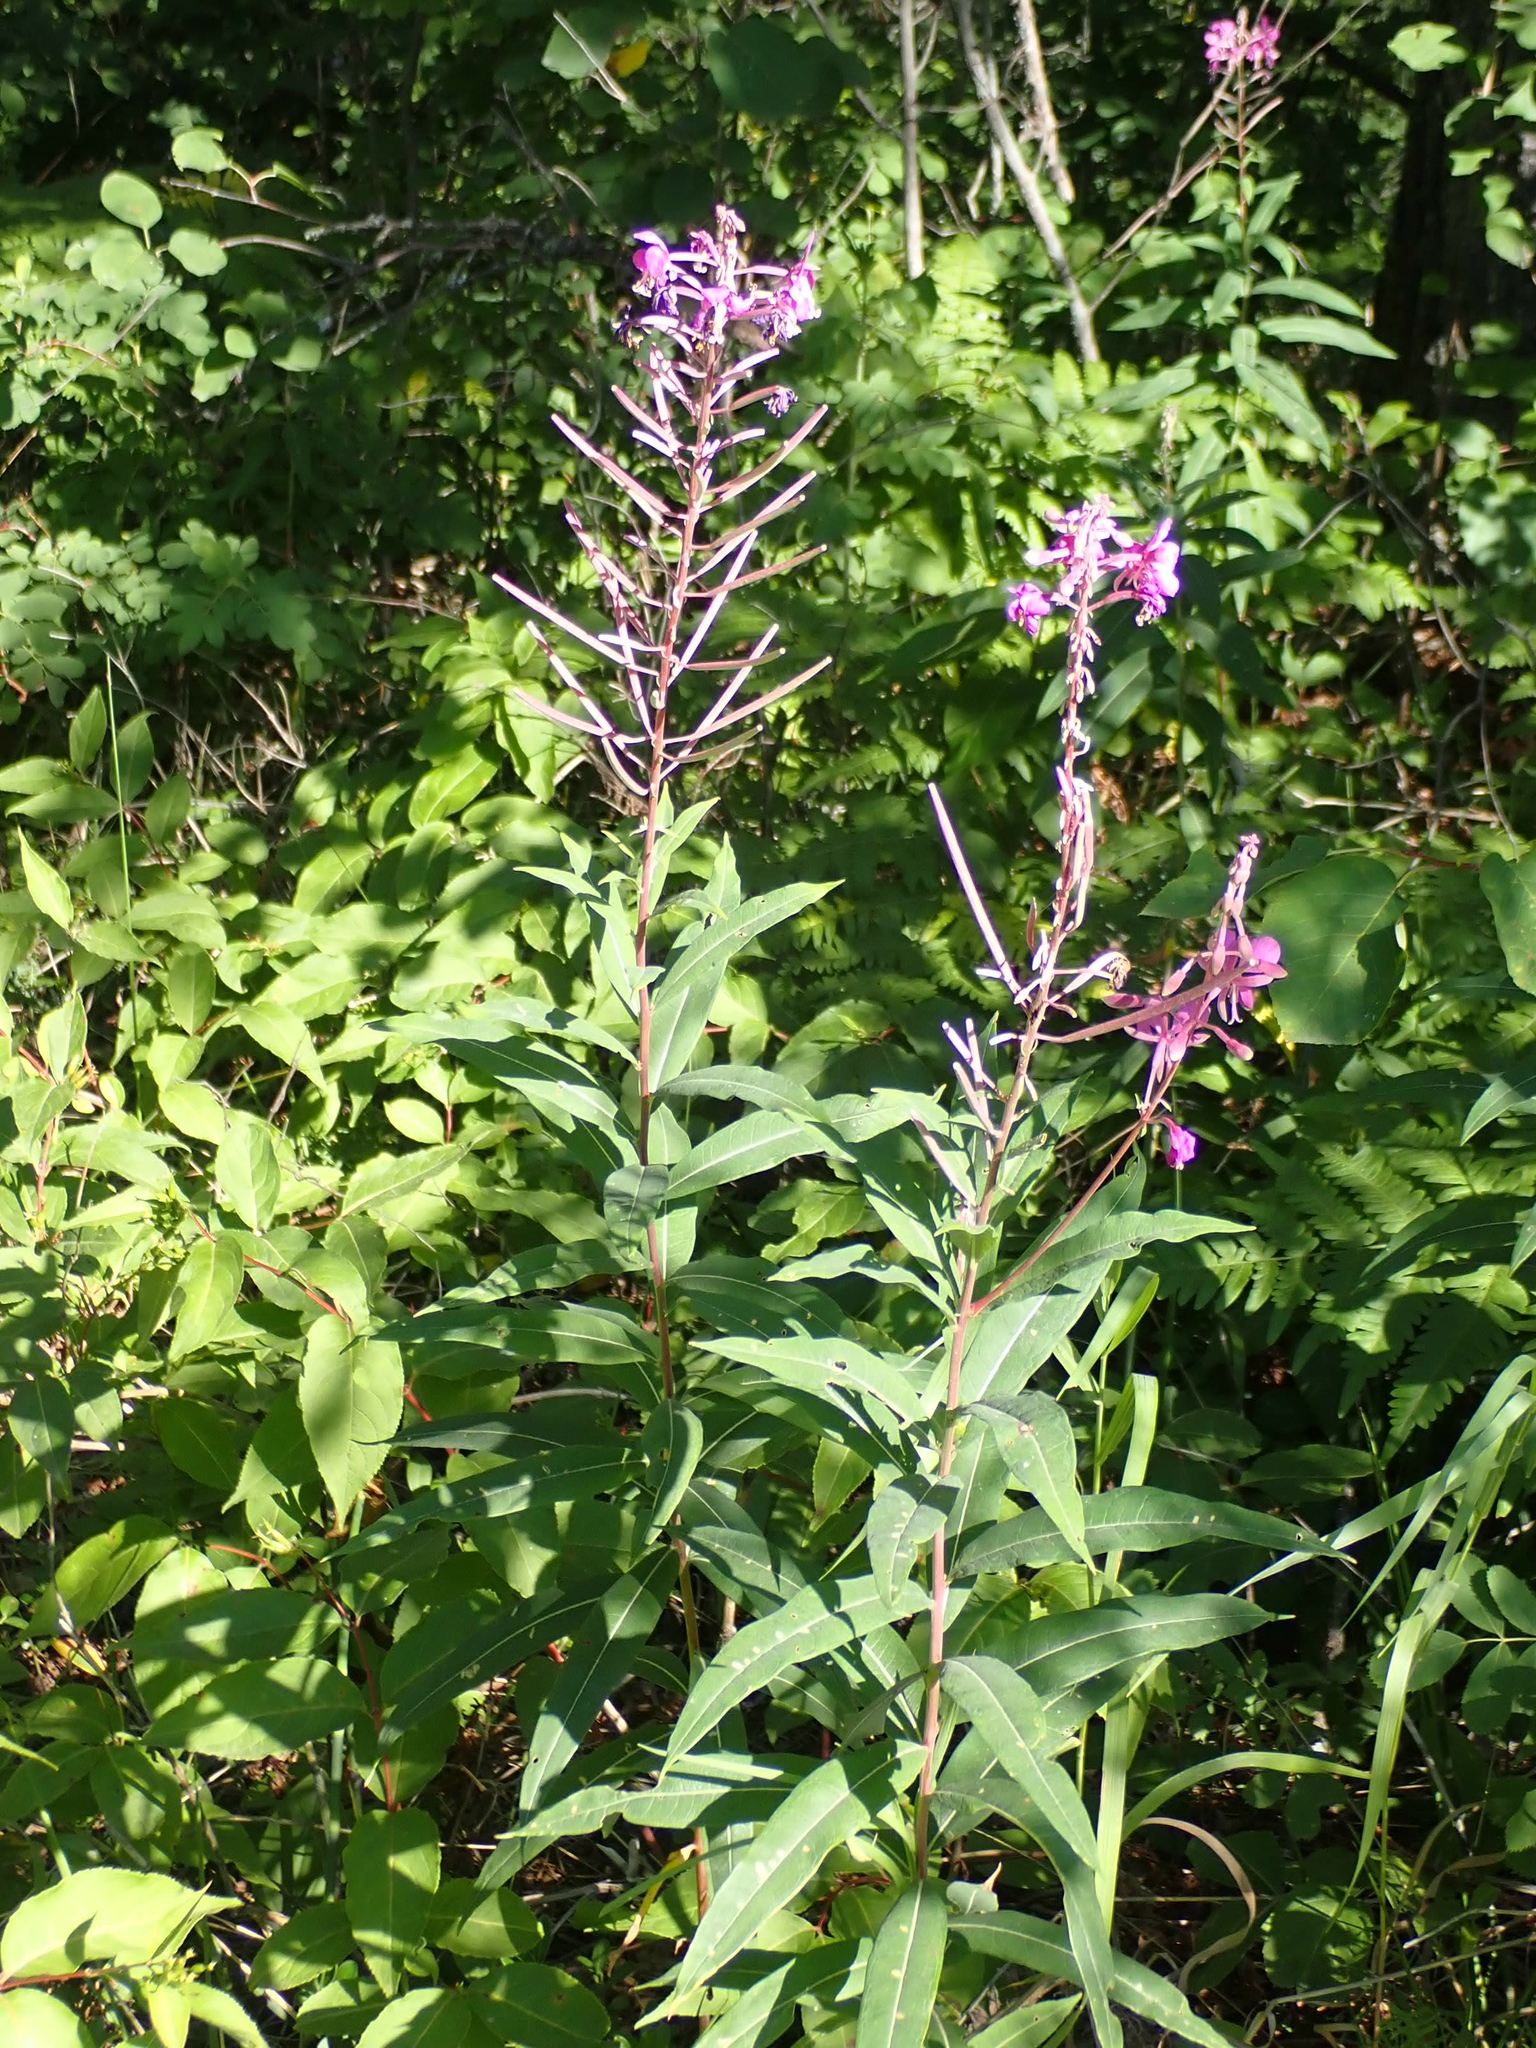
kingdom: Plantae
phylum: Tracheophyta
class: Magnoliopsida
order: Myrtales
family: Onagraceae
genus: Chamaenerion
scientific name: Chamaenerion angustifolium
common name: Fireweed
